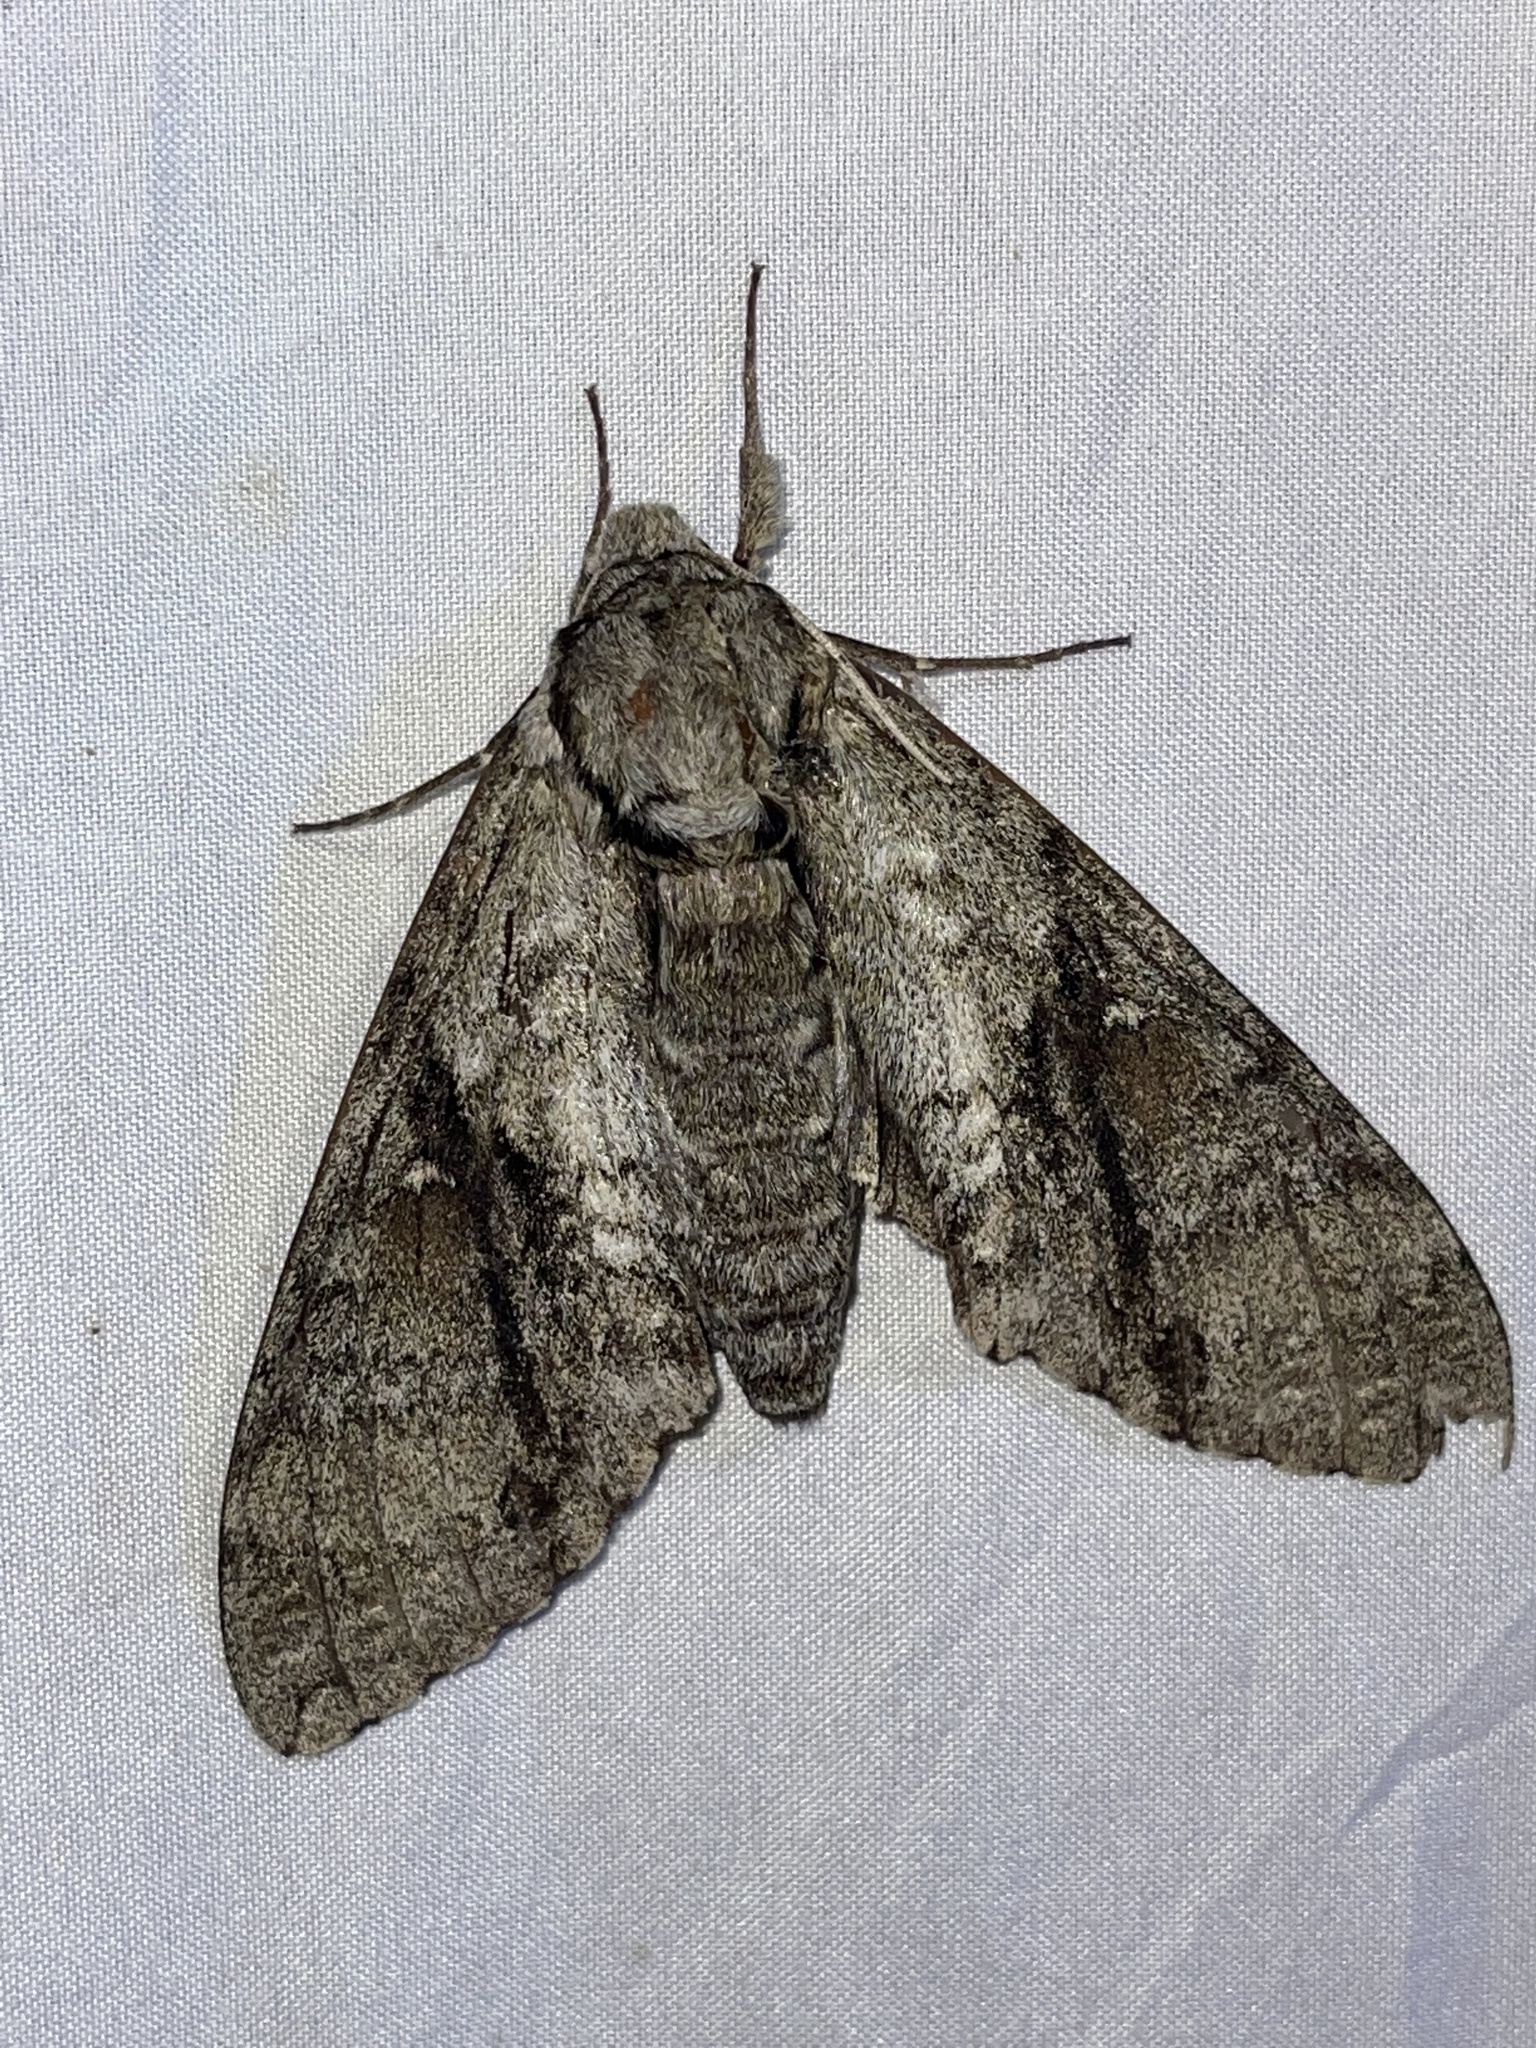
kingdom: Animalia
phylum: Arthropoda
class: Insecta
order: Lepidoptera
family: Sphingidae
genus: Manduca
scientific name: Manduca jasminearum
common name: Ash sphinx
